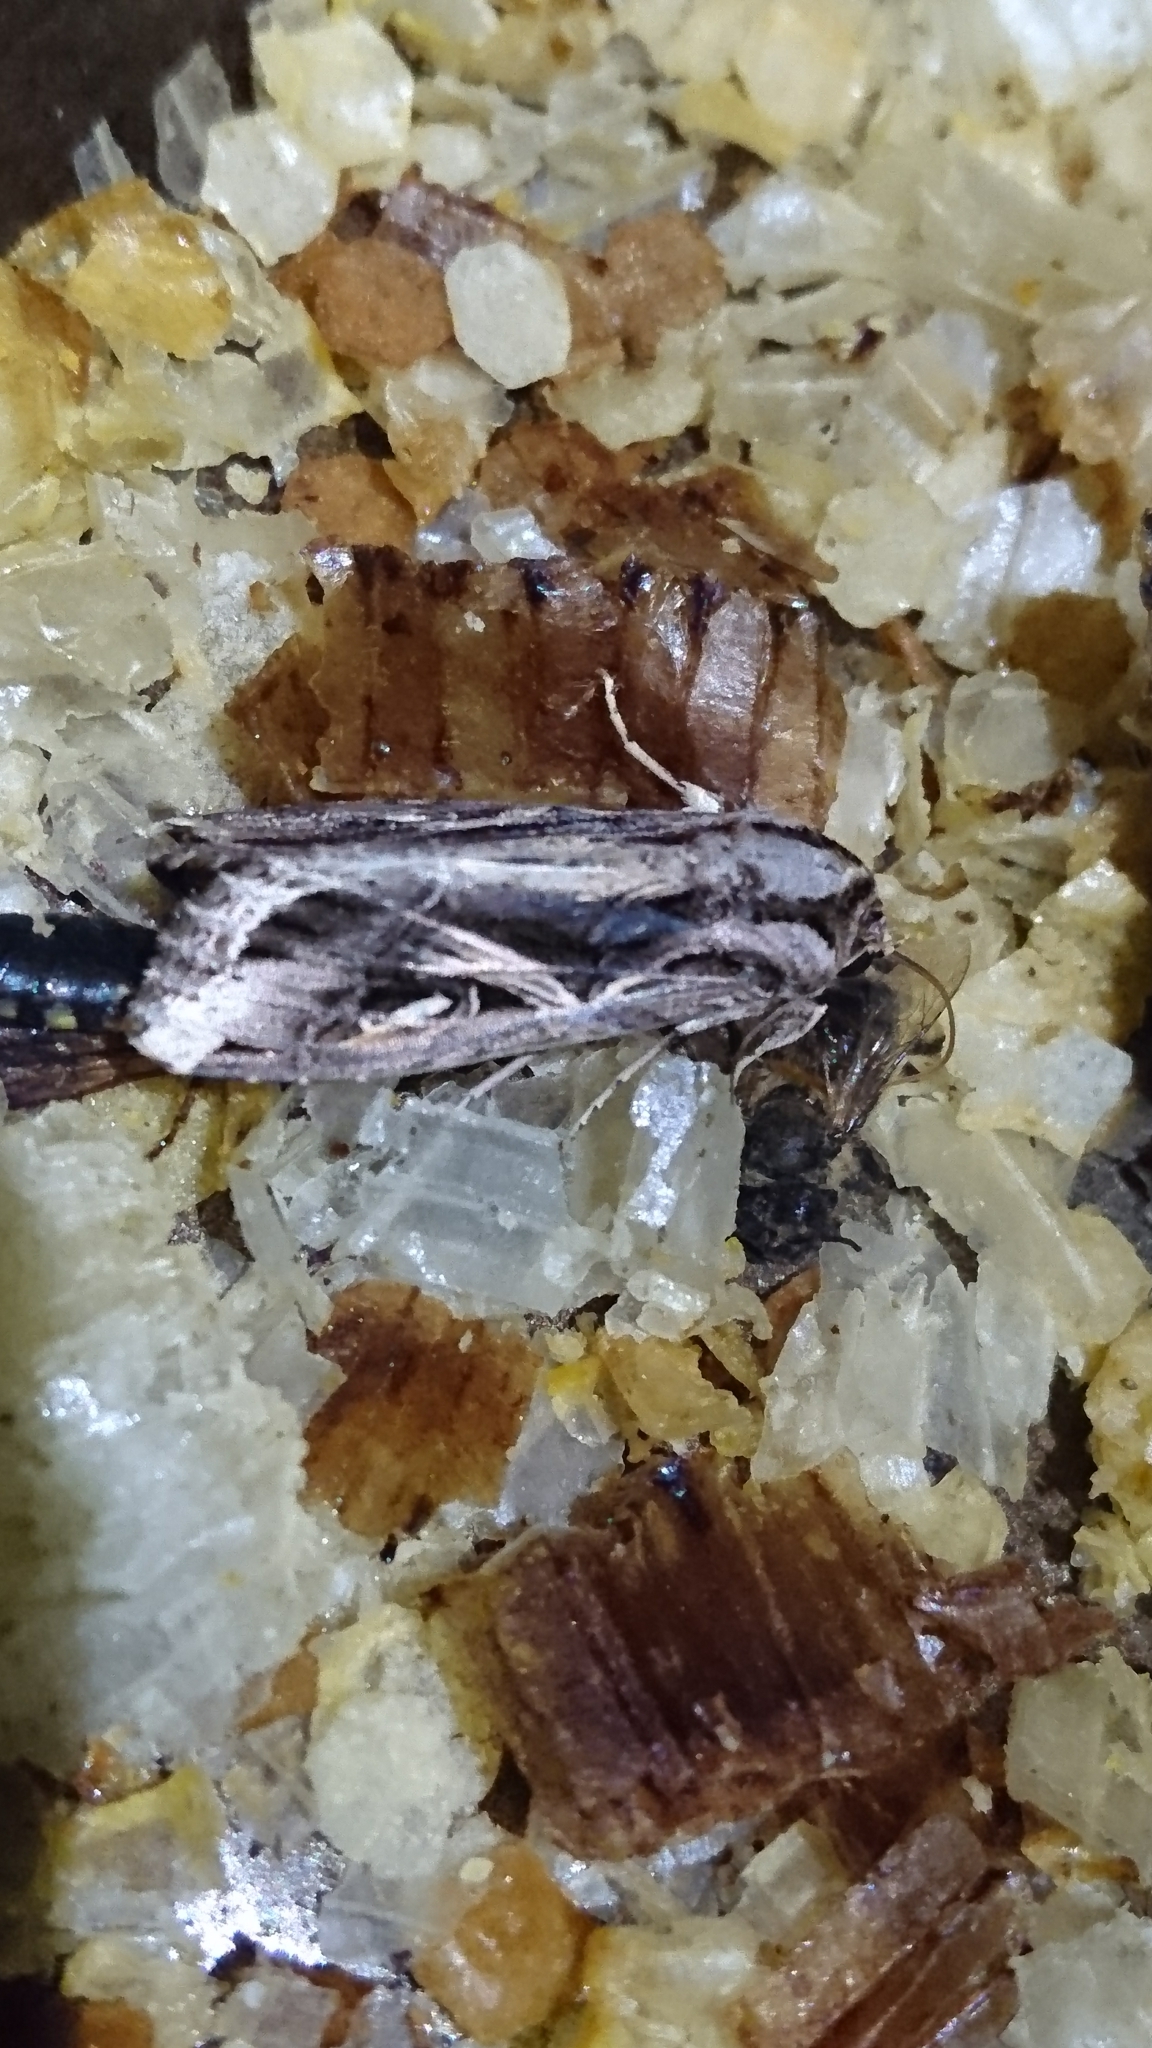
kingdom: Animalia
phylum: Arthropoda
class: Insecta
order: Lepidoptera
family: Noctuidae
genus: Spodoptera
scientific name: Spodoptera dolichos
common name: Sweetpotato armyworm
